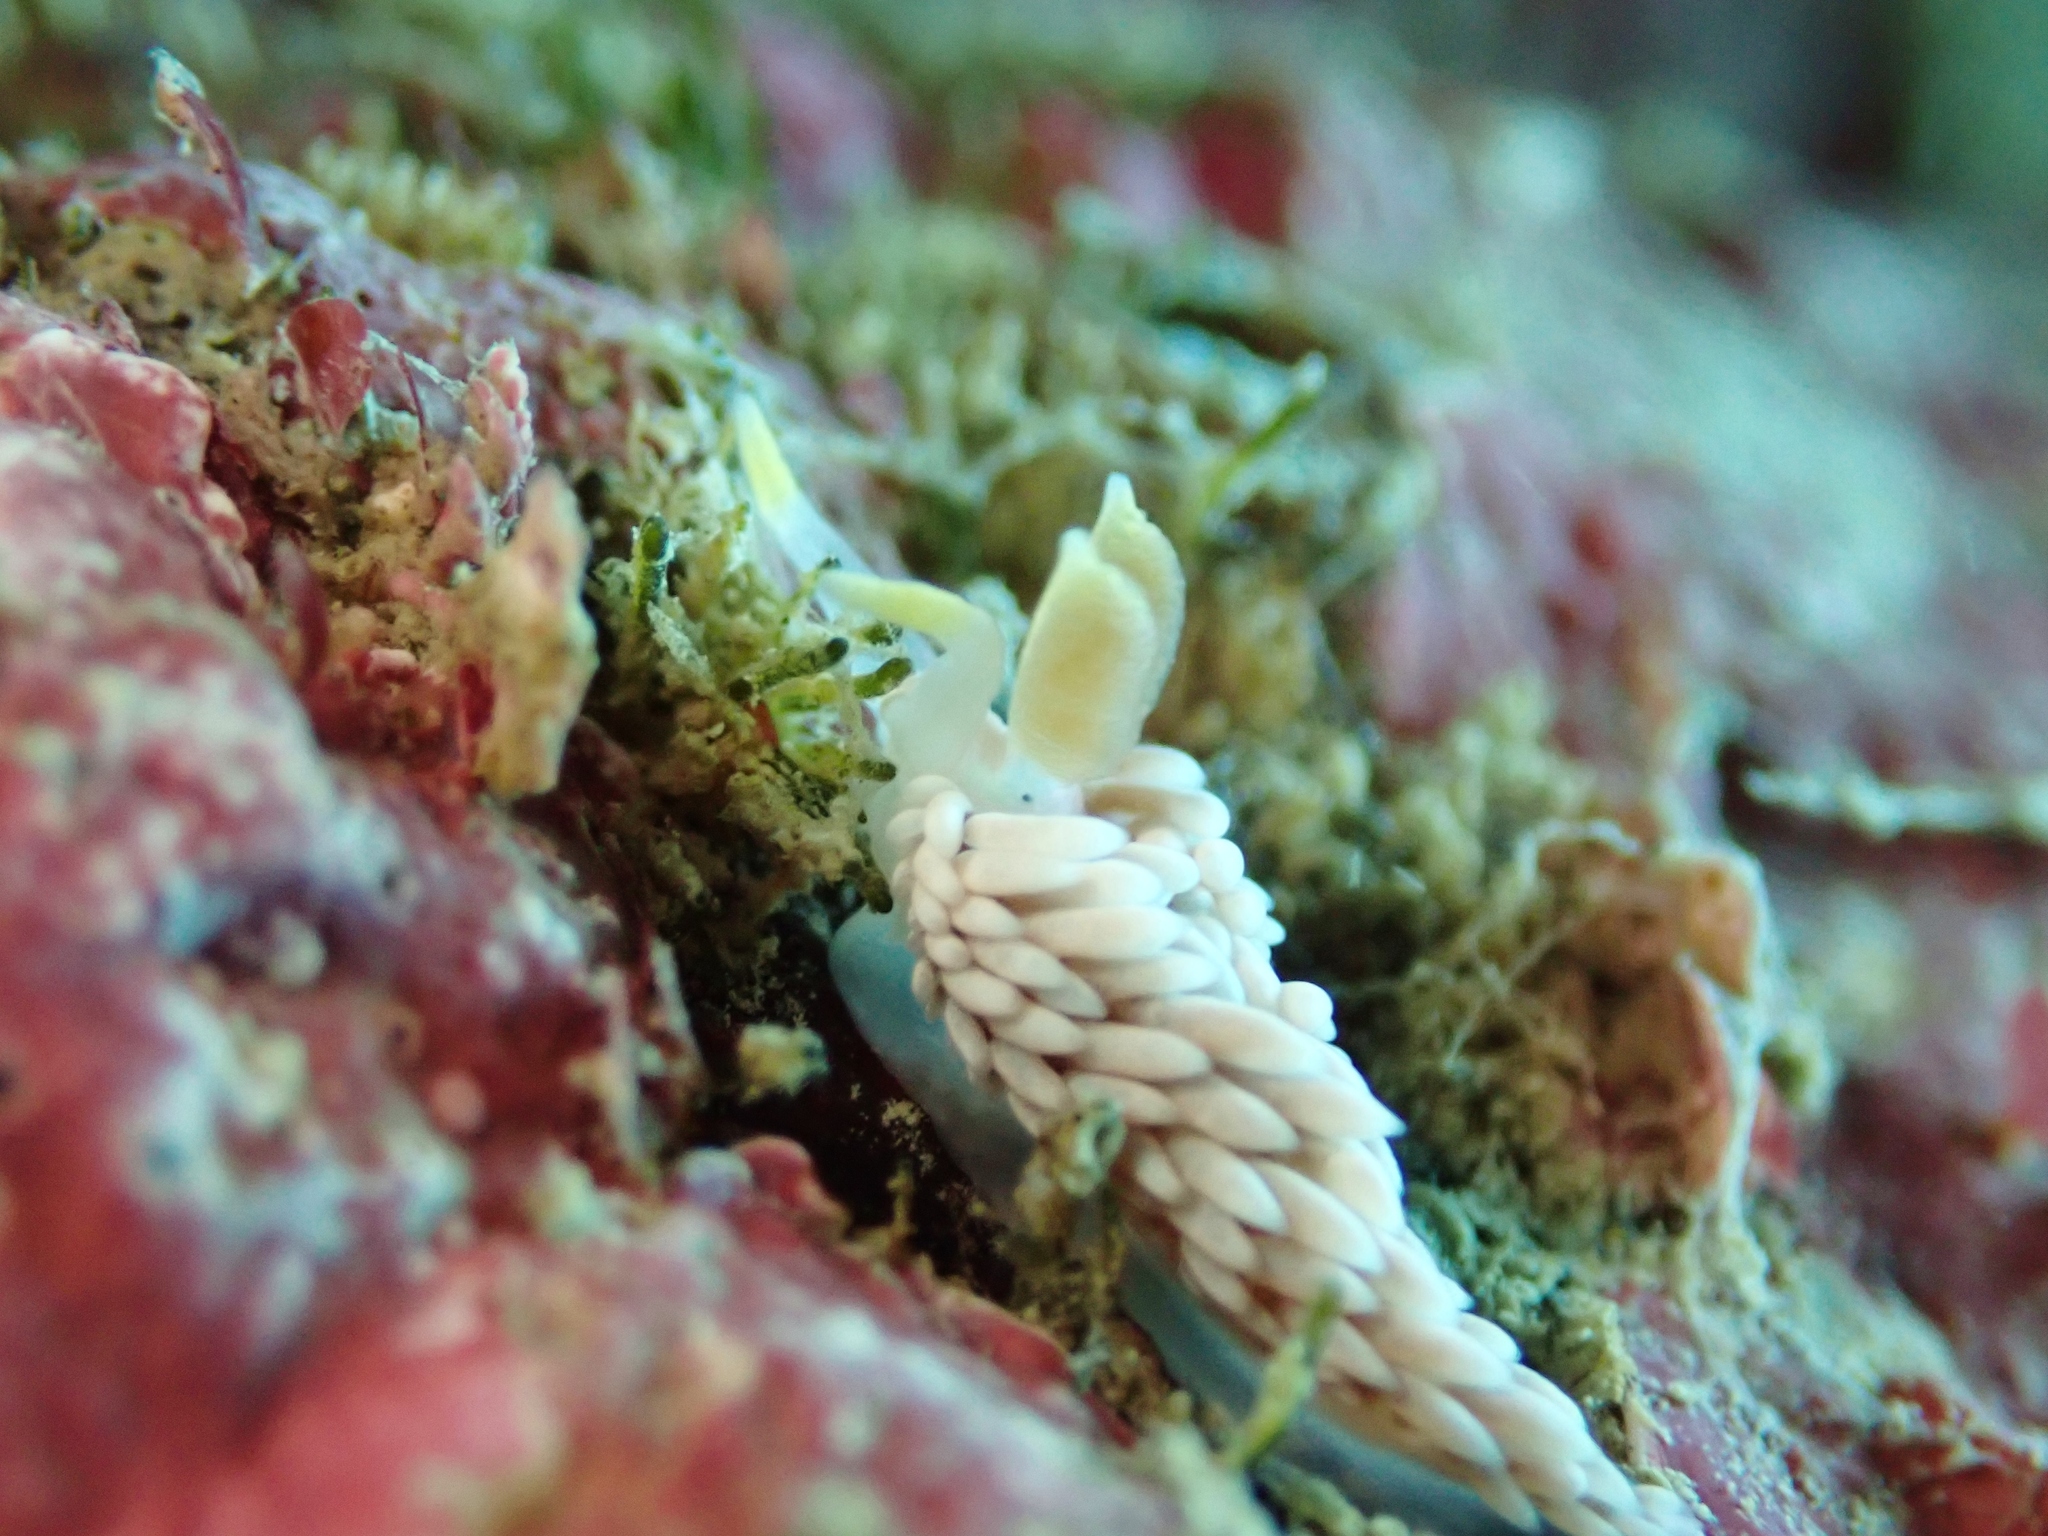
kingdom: Animalia
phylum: Mollusca
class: Gastropoda
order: Nudibranchia
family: Babakinidae
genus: Babakina
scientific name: Babakina caprinsulensis
